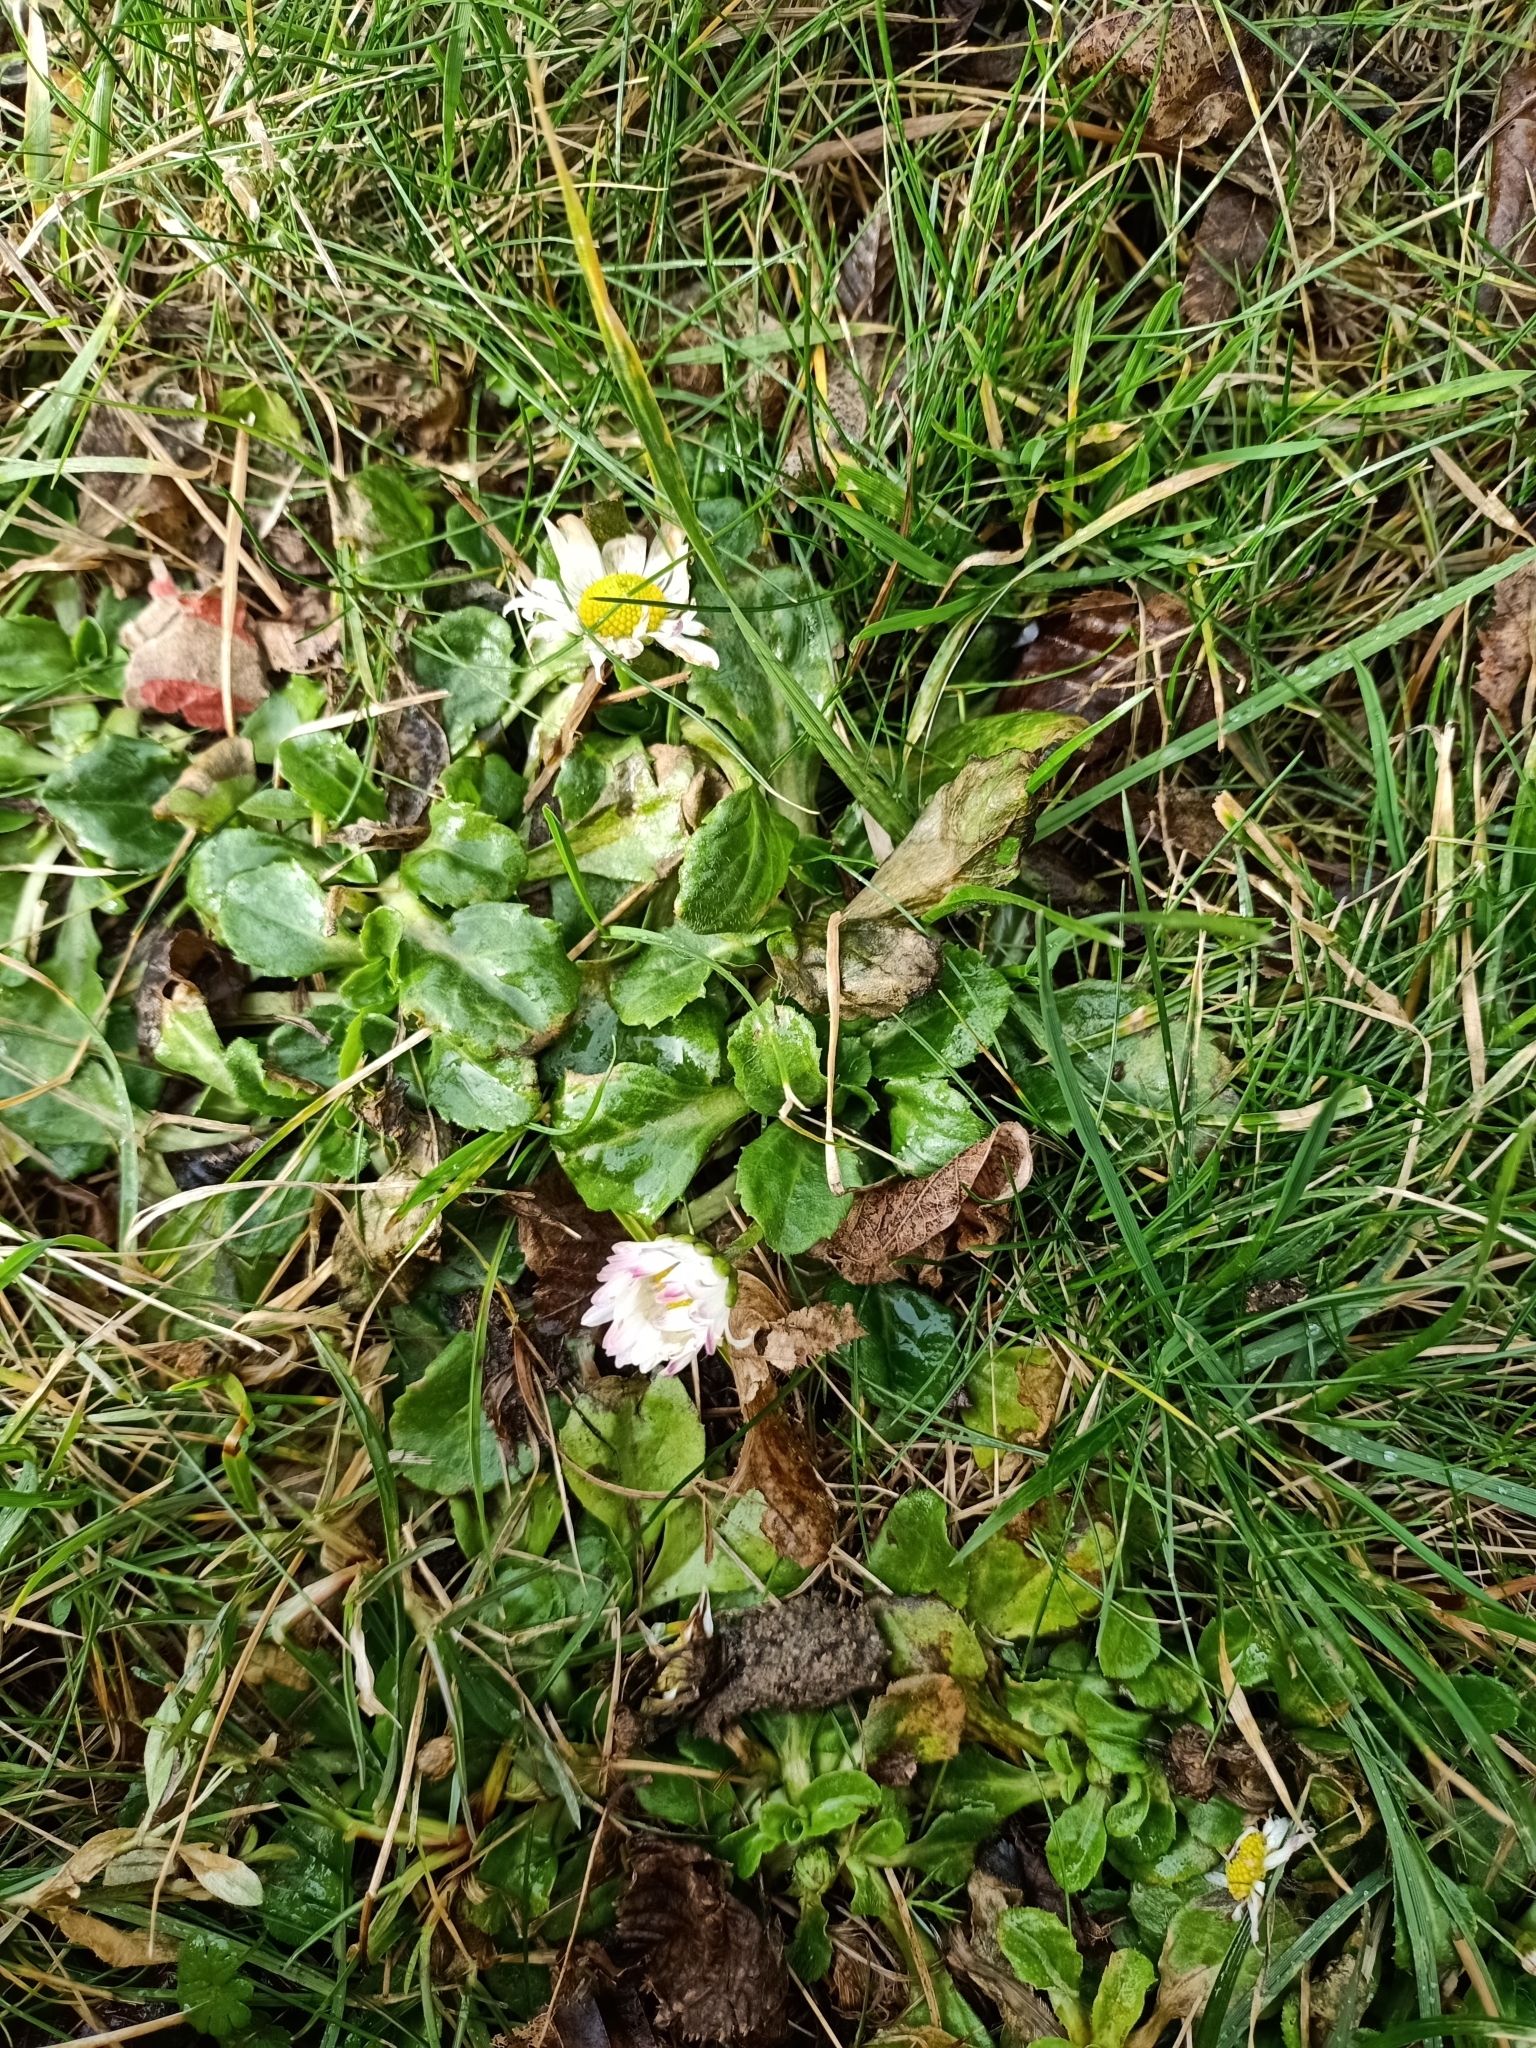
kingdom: Plantae
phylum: Tracheophyta
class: Magnoliopsida
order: Asterales
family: Asteraceae
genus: Bellis
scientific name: Bellis perennis
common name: Lawndaisy
